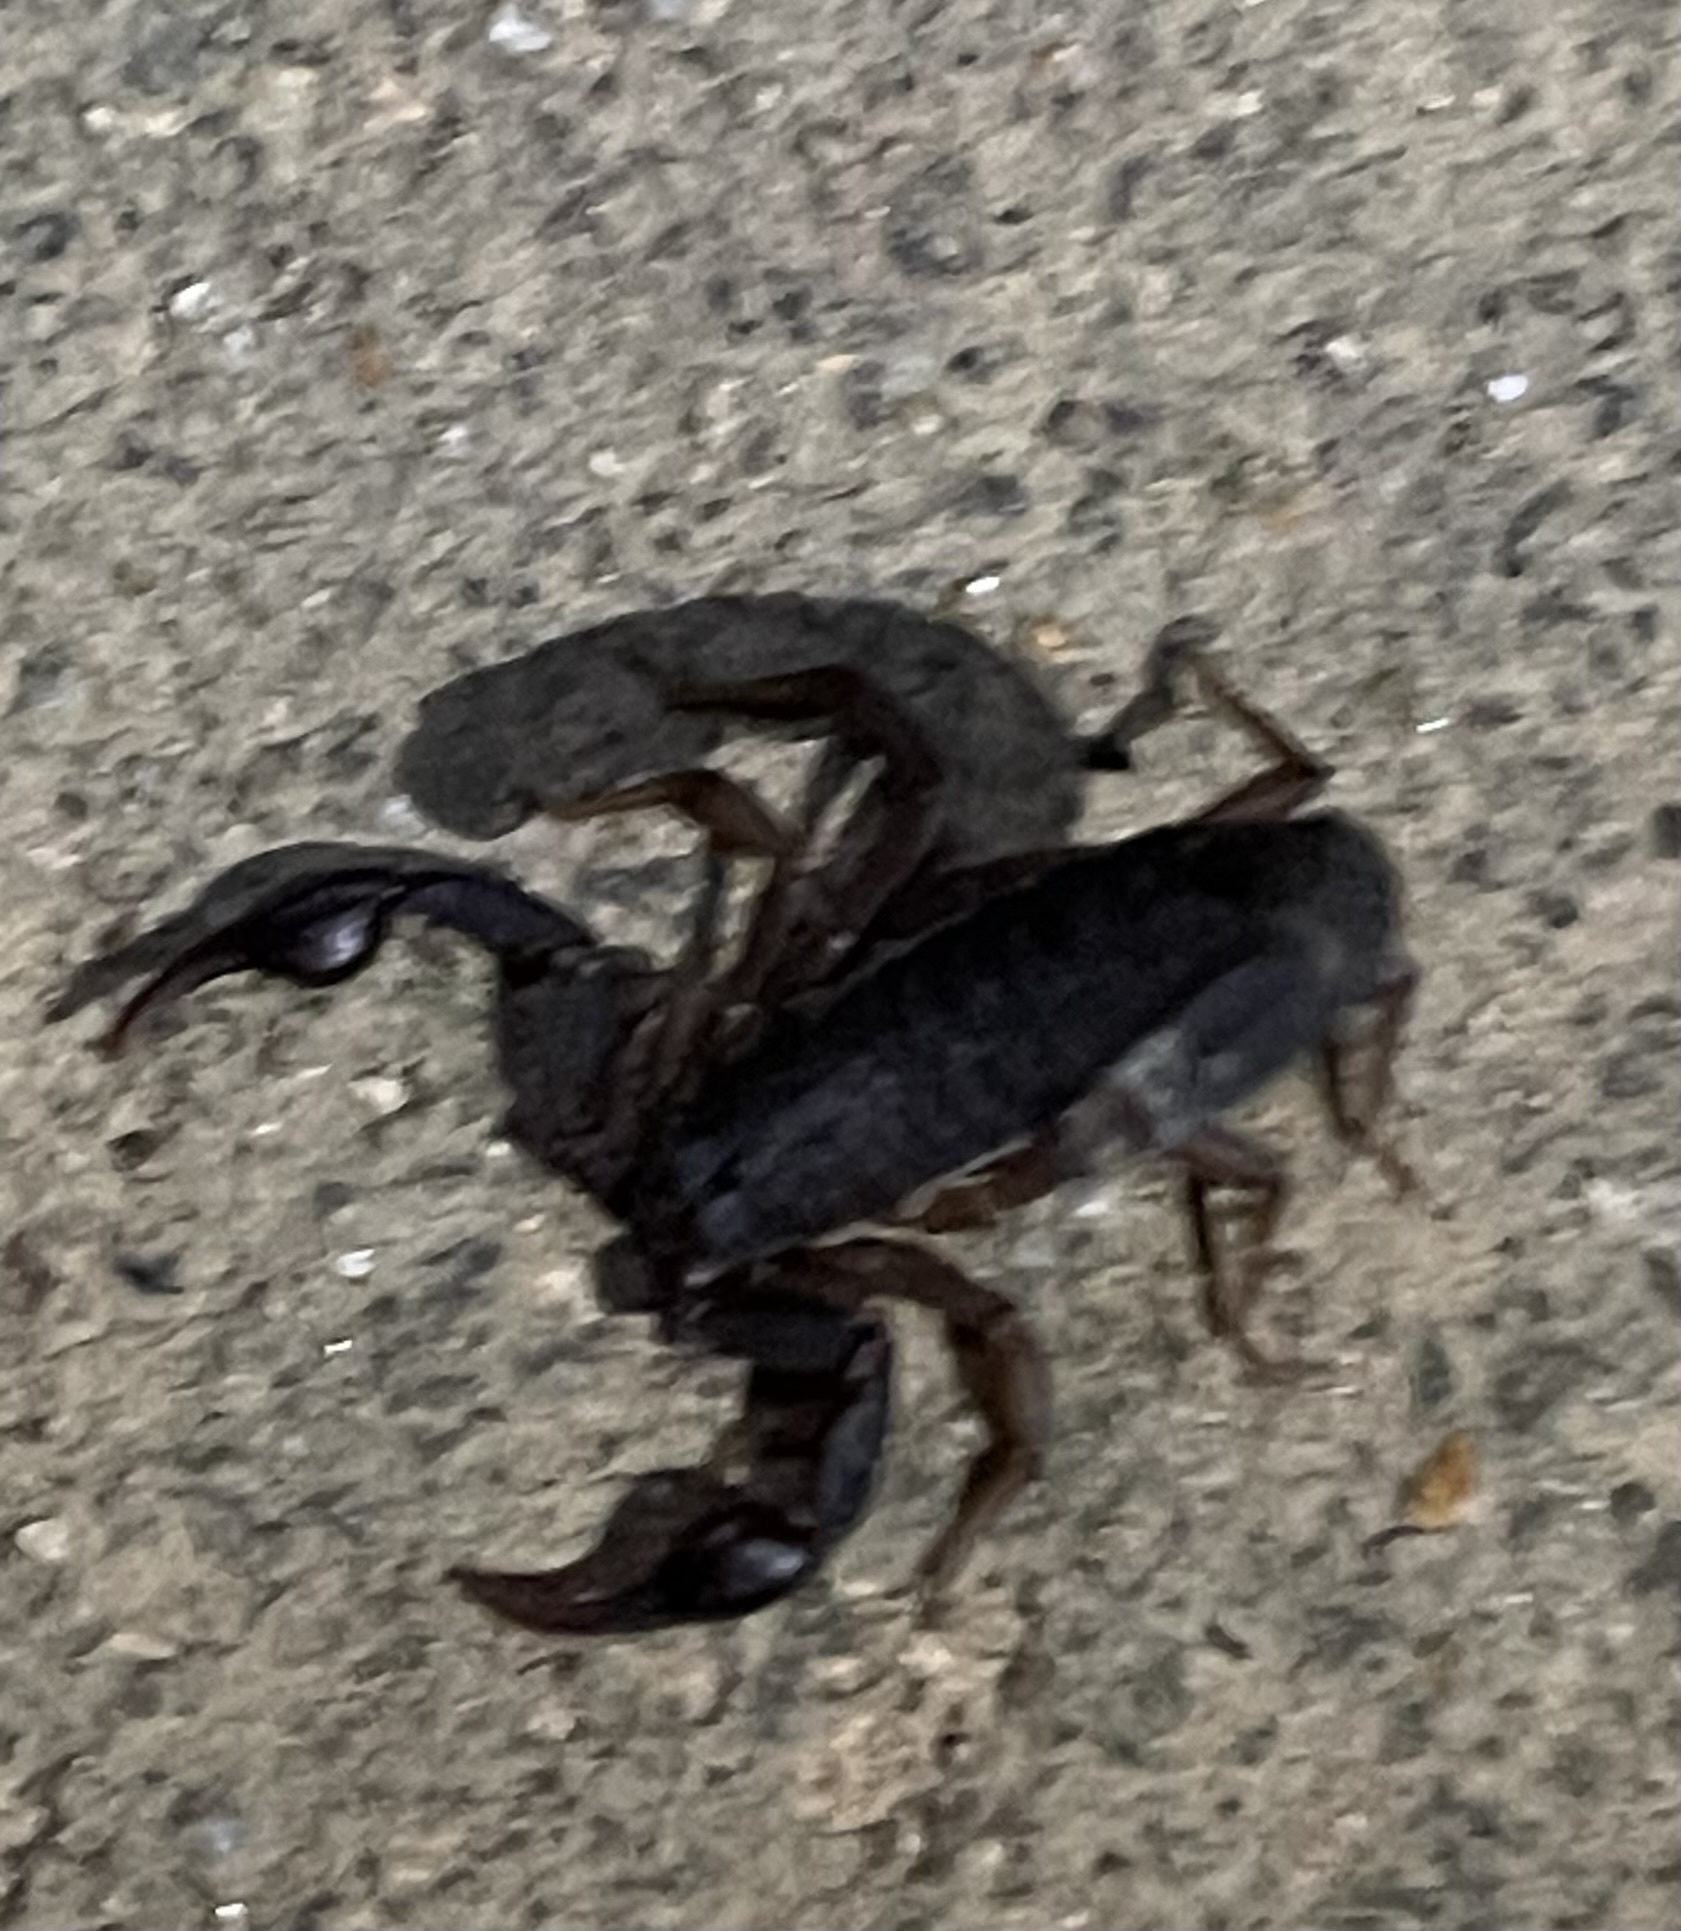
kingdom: Animalia
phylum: Arthropoda
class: Arachnida
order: Scorpiones
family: Vaejovidae
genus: Vaejovis
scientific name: Vaejovis carolinianus
